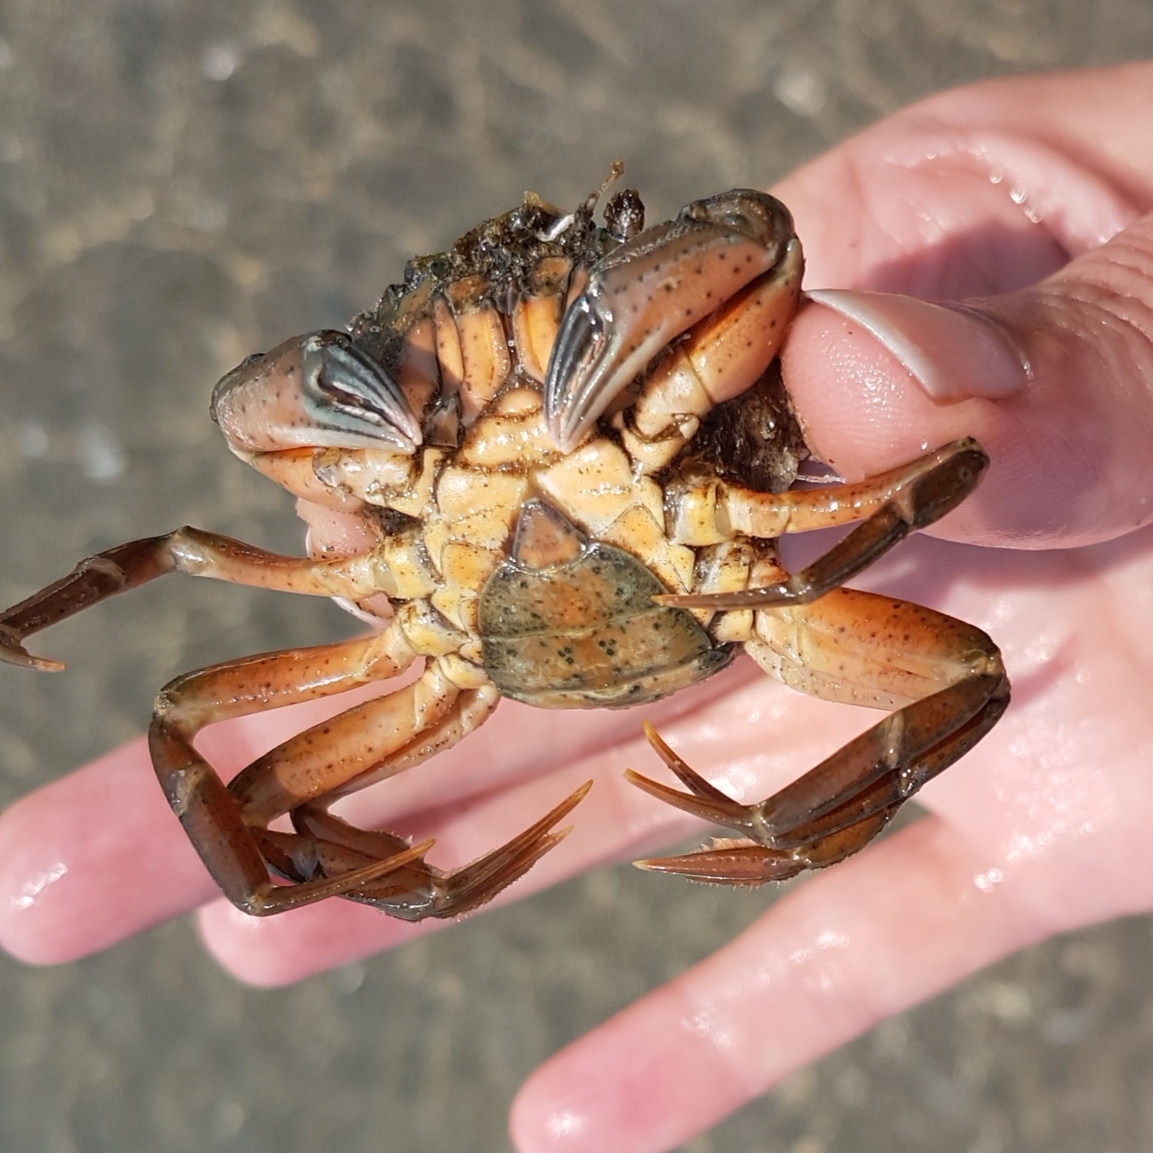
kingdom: Animalia
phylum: Arthropoda
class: Malacostraca
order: Decapoda
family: Carcinidae
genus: Carcinus
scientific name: Carcinus aestuarii
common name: Mediterranean green crab
